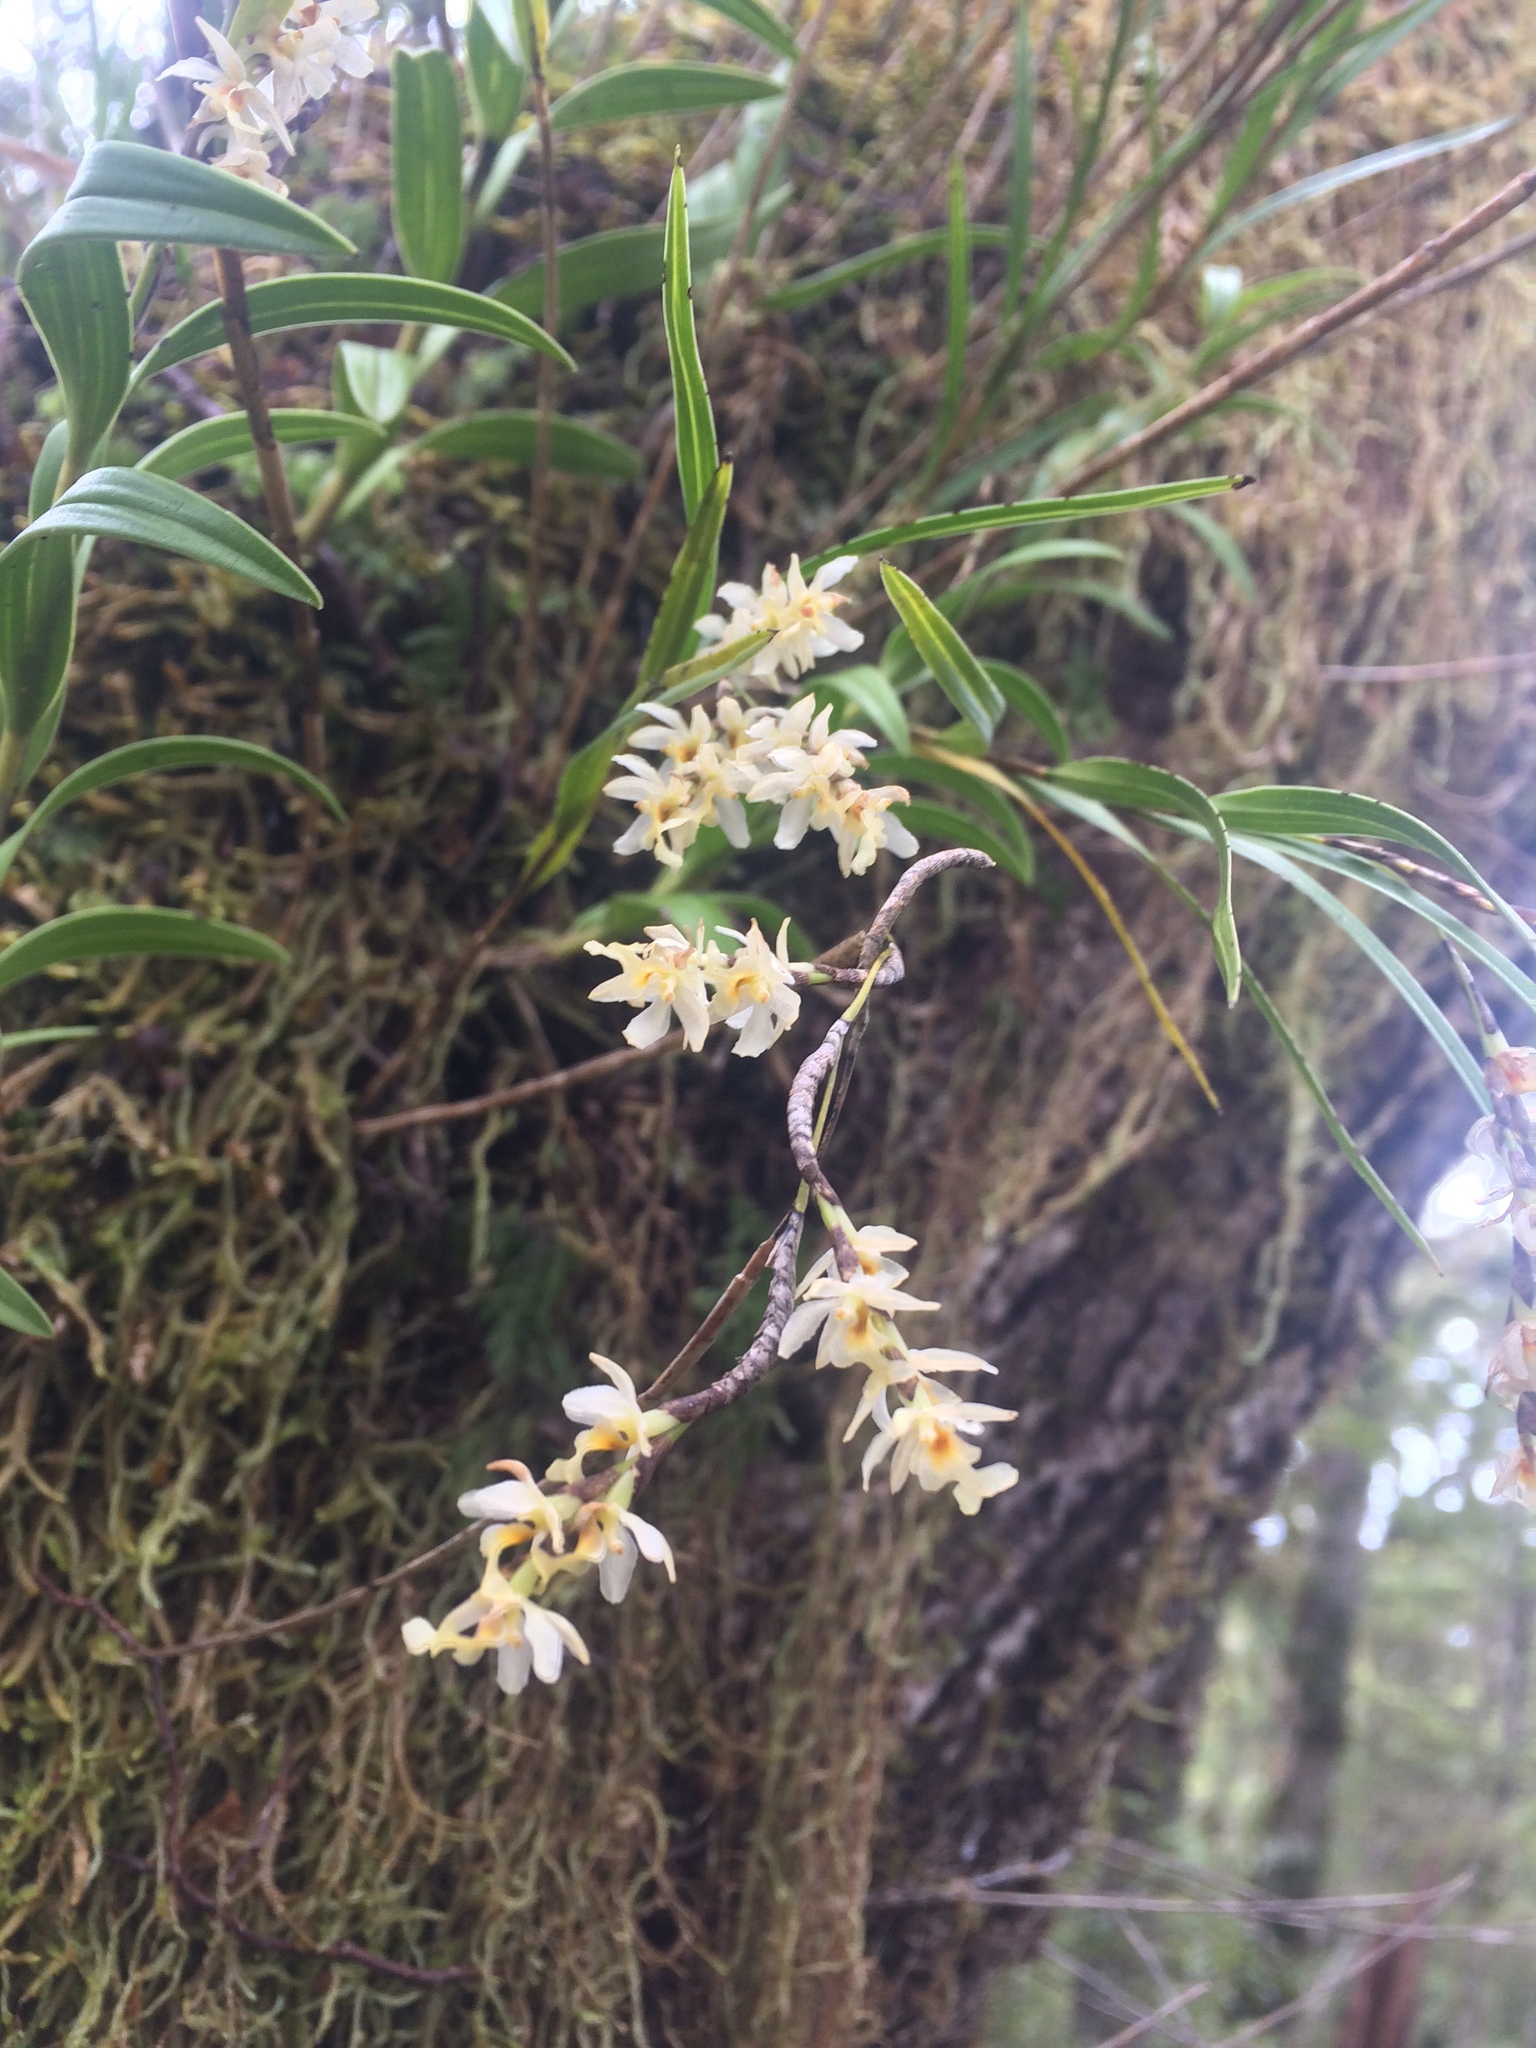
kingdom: Plantae
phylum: Tracheophyta
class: Liliopsida
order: Asparagales
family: Orchidaceae
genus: Earina
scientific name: Earina mucronata
